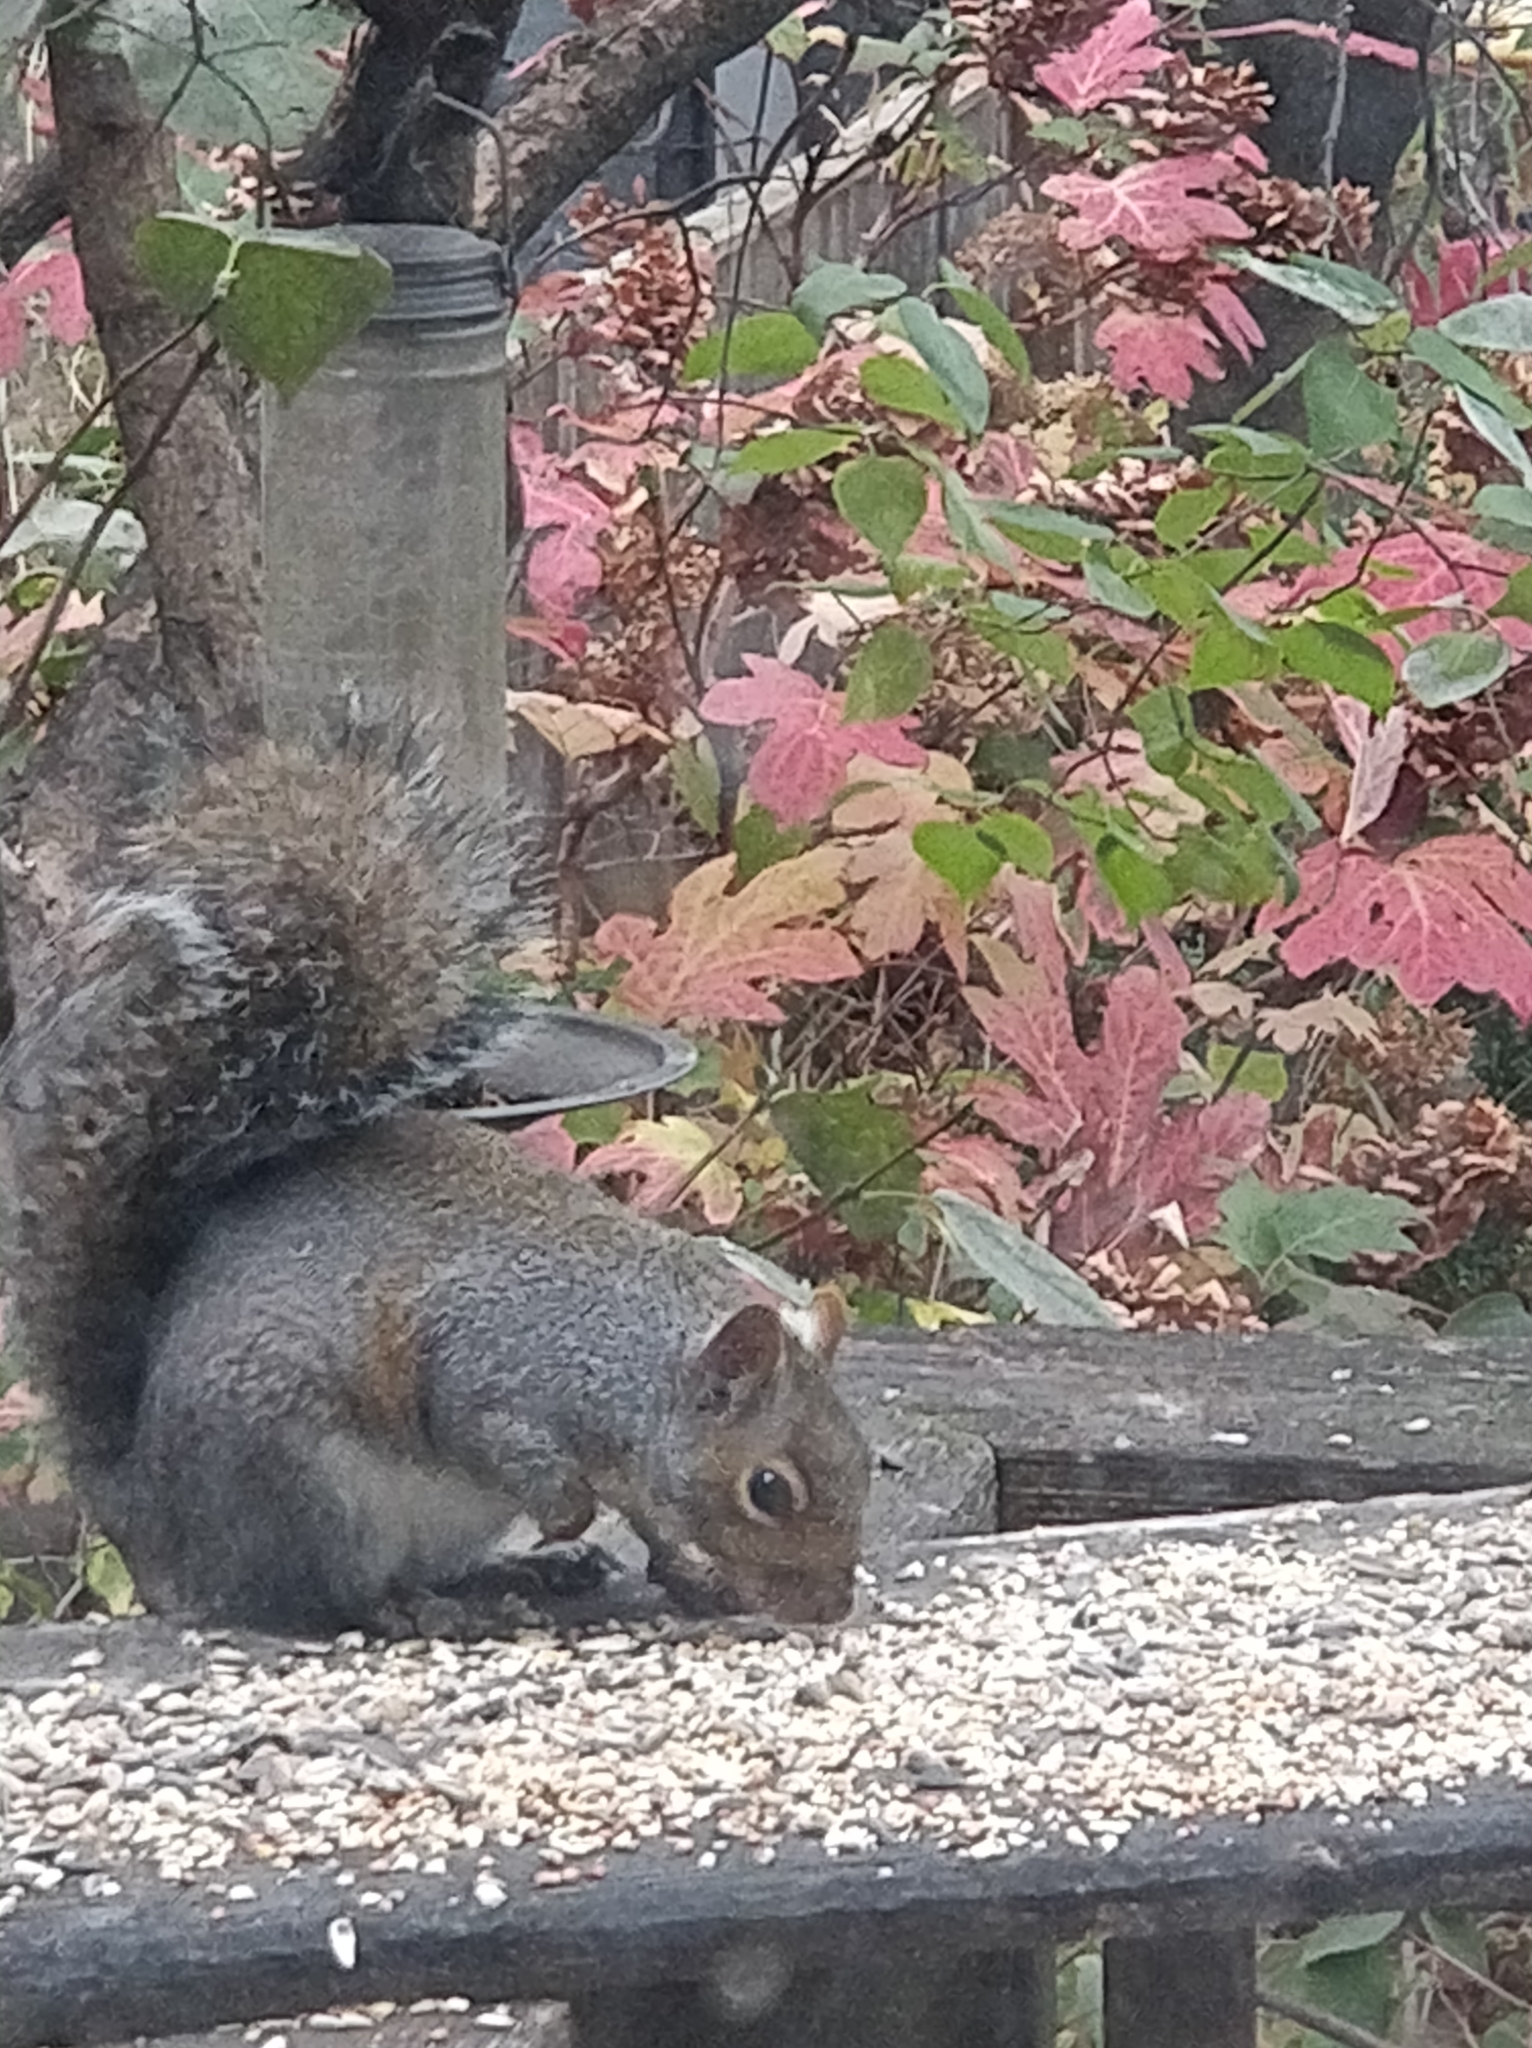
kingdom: Animalia
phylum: Chordata
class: Mammalia
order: Rodentia
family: Sciuridae
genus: Sciurus
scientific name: Sciurus carolinensis
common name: Eastern gray squirrel
